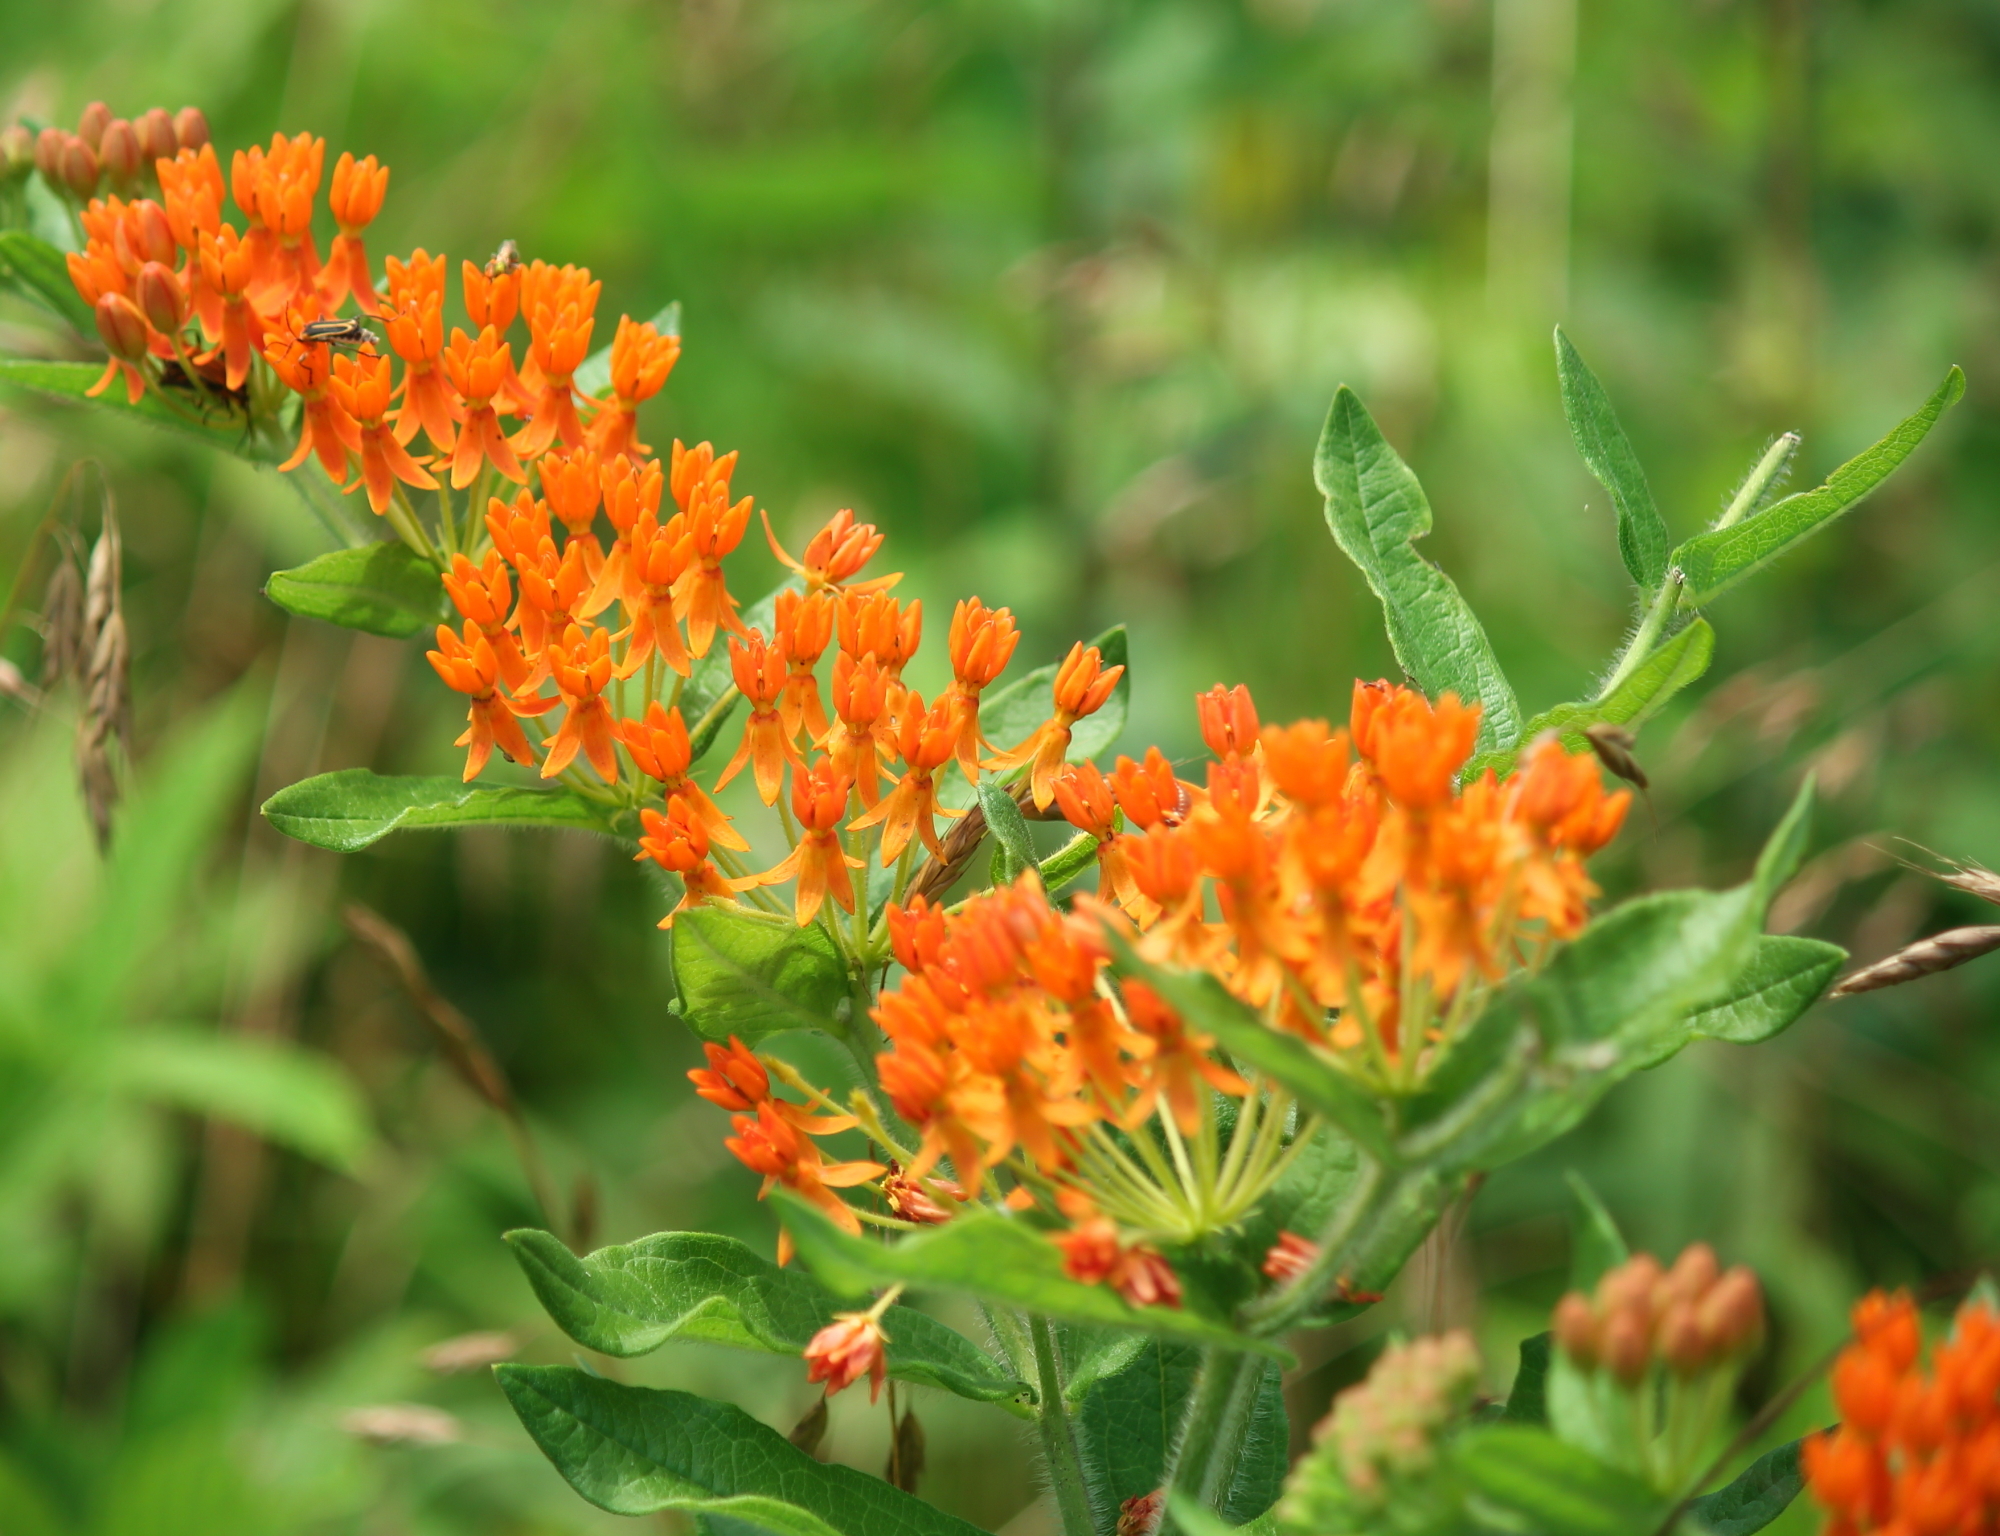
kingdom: Plantae
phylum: Tracheophyta
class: Magnoliopsida
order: Gentianales
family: Apocynaceae
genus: Asclepias
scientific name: Asclepias tuberosa
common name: Butterfly milkweed
